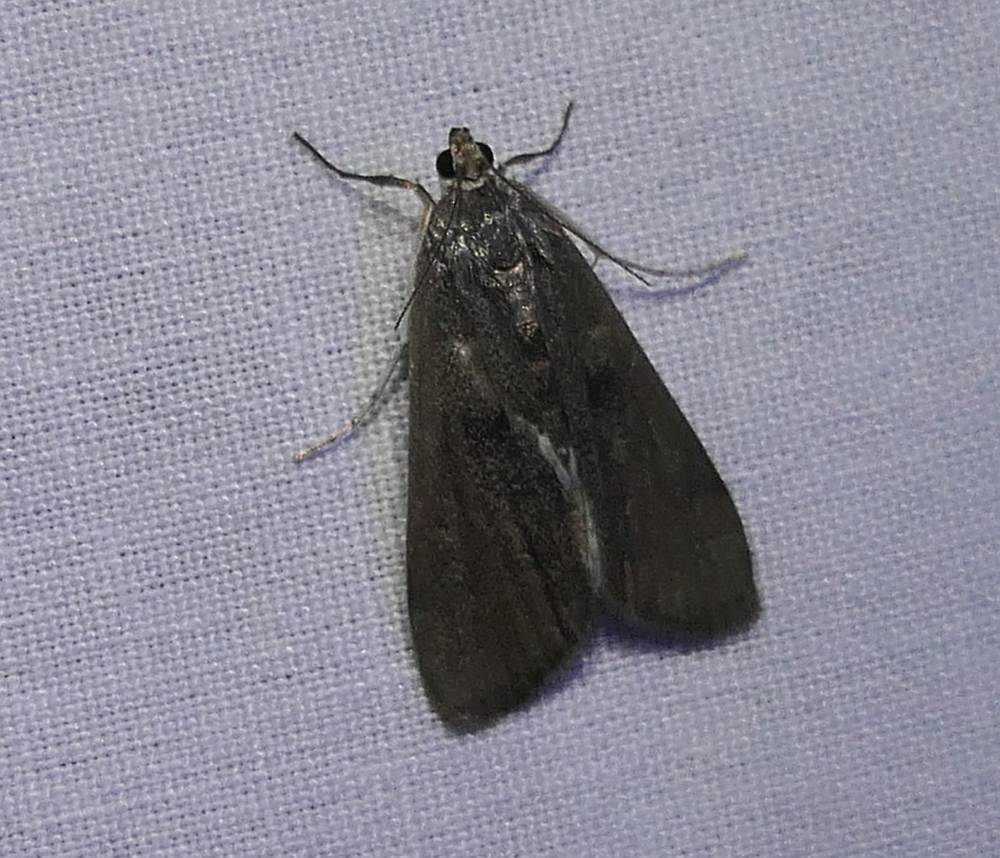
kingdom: Animalia
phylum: Arthropoda
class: Insecta
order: Lepidoptera
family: Crambidae
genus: Parapoynx
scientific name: Parapoynx maculalis
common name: Polymorphic pondweed moth
